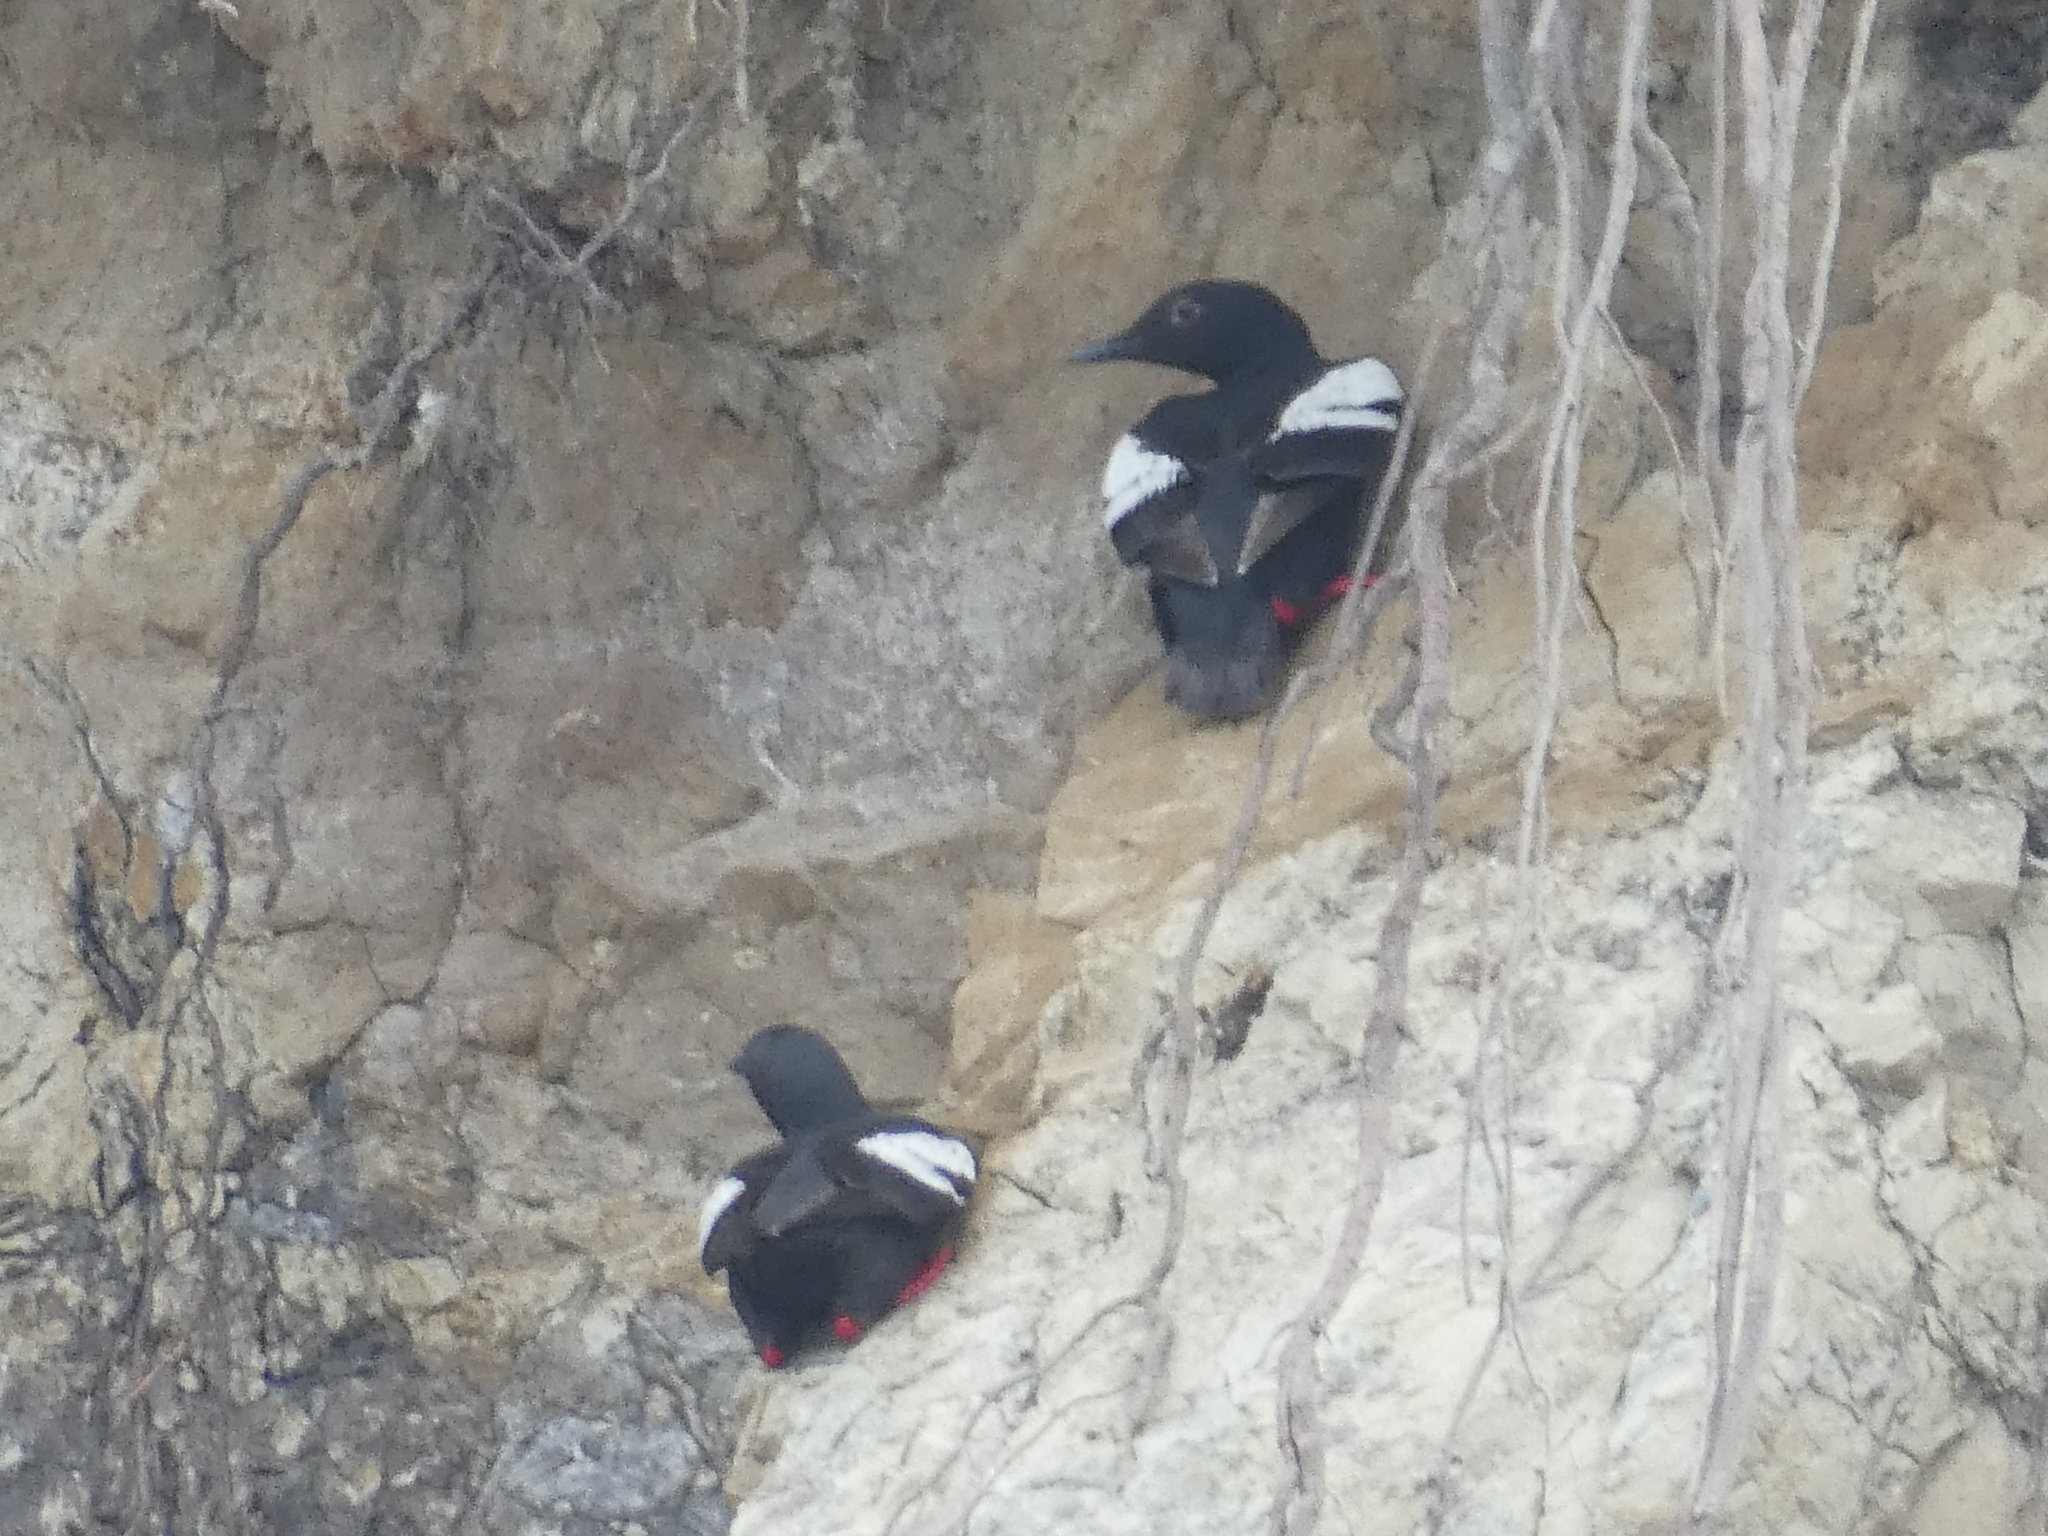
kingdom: Animalia
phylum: Chordata
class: Aves
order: Charadriiformes
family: Alcidae
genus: Cepphus
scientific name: Cepphus columba
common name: Pigeon guillemot
